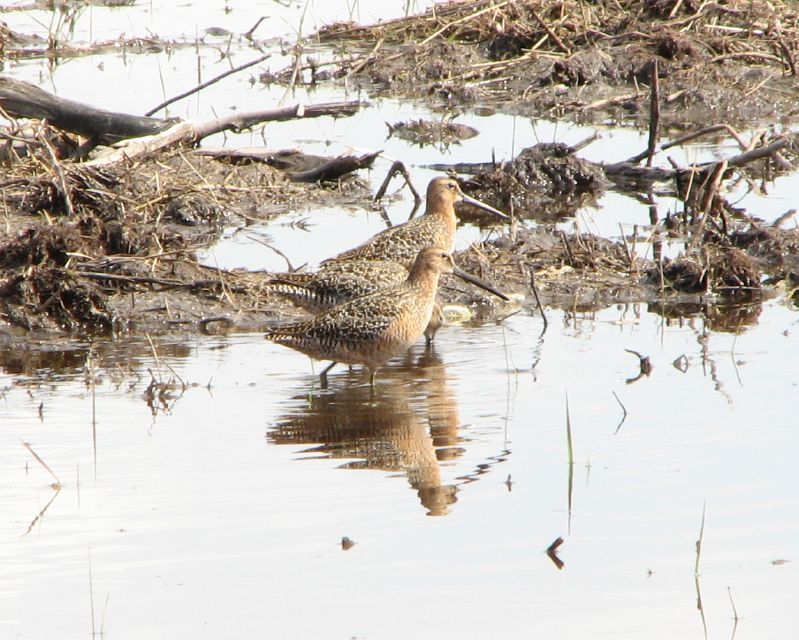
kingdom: Animalia
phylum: Chordata
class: Aves
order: Charadriiformes
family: Scolopacidae
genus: Limnodromus
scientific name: Limnodromus griseus
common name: Short-billed dowitcher
